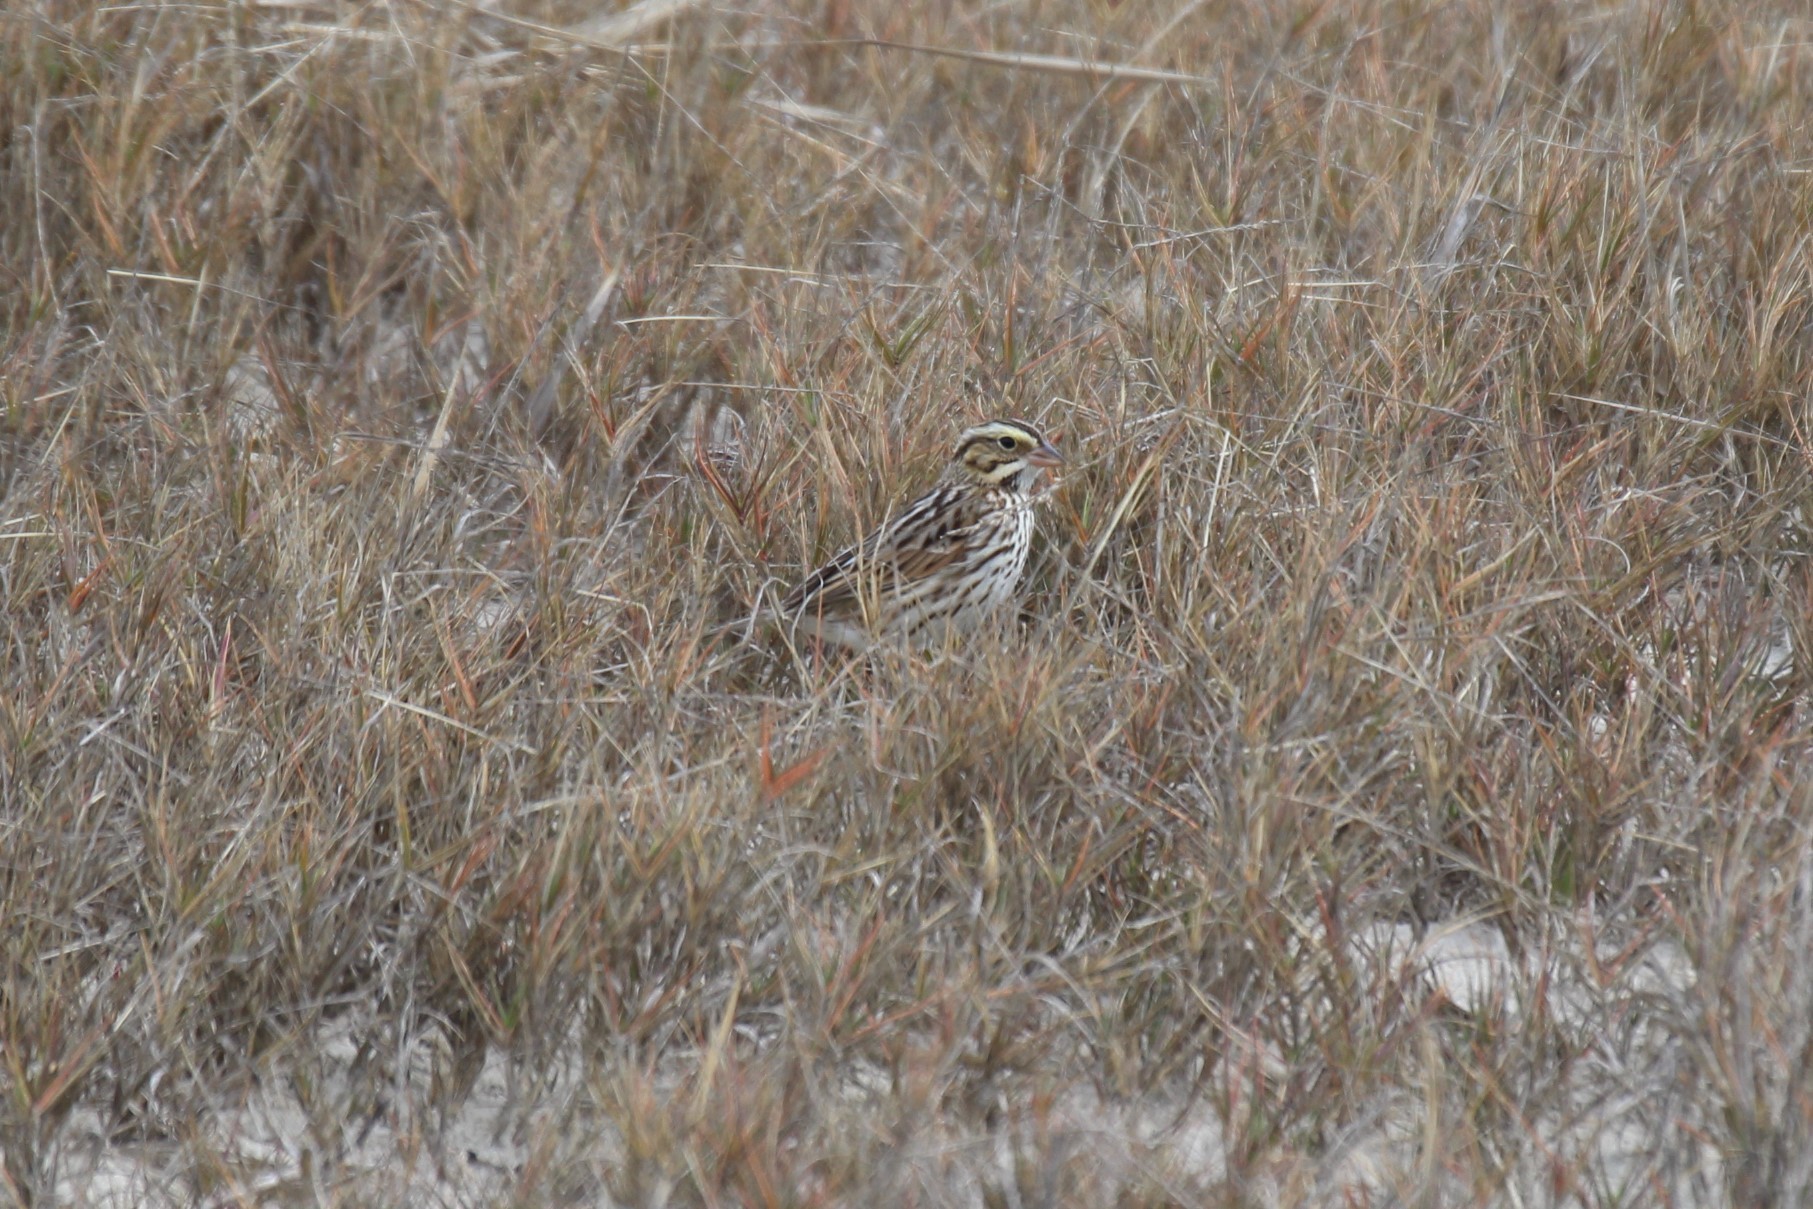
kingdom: Animalia
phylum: Chordata
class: Aves
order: Passeriformes
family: Passerellidae
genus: Passerculus
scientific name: Passerculus sandwichensis
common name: Savannah sparrow
